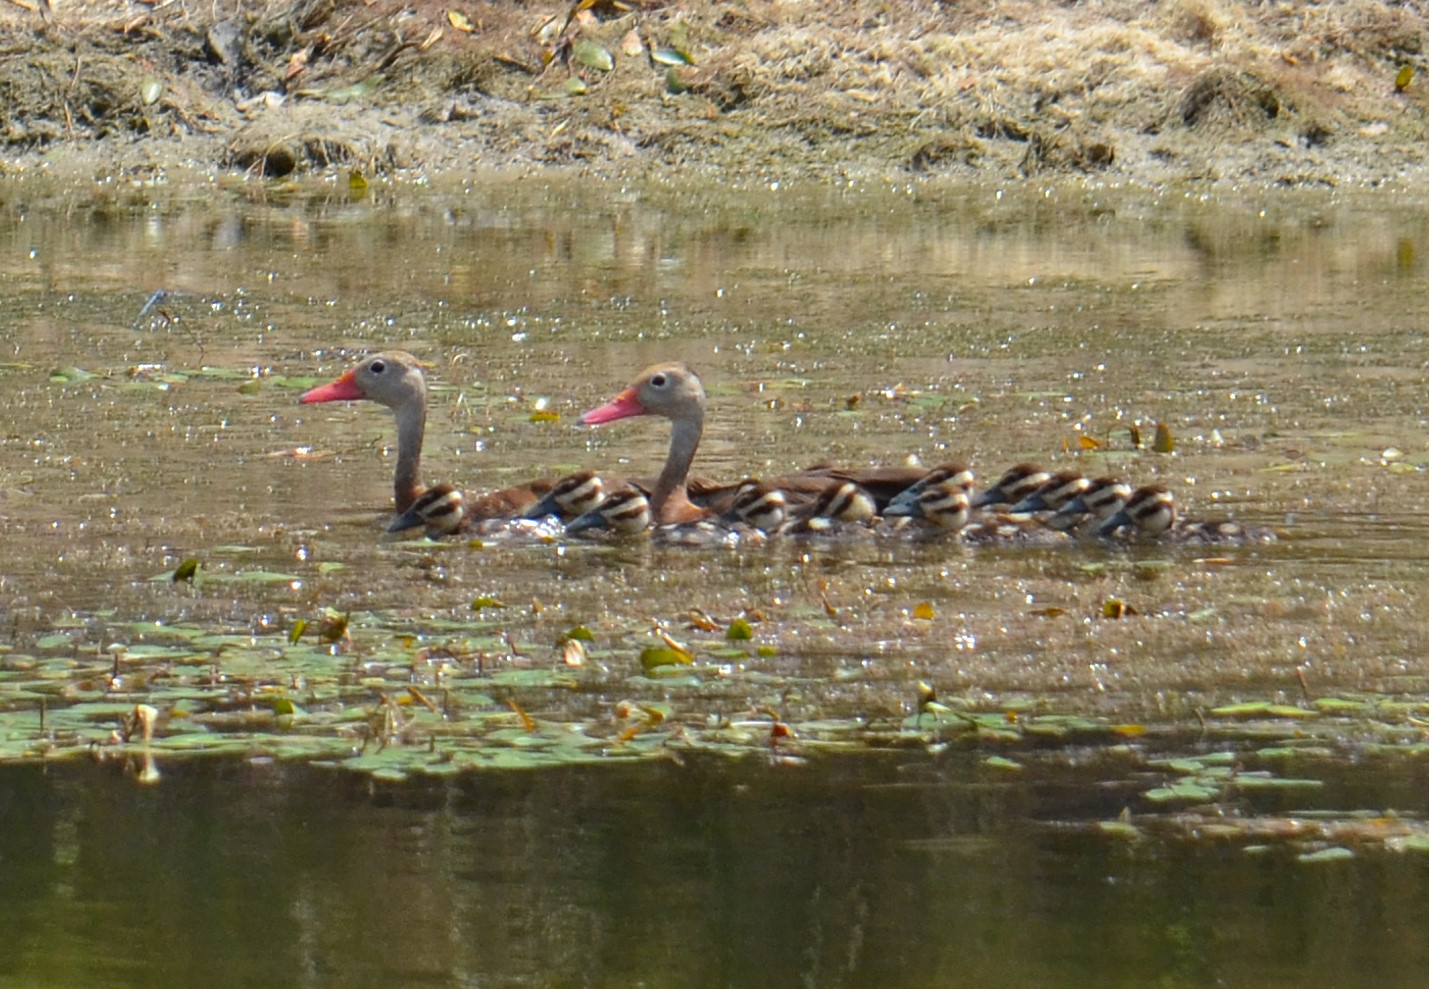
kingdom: Animalia
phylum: Chordata
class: Aves
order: Anseriformes
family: Anatidae
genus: Dendrocygna
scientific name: Dendrocygna autumnalis
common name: Black-bellied whistling duck
